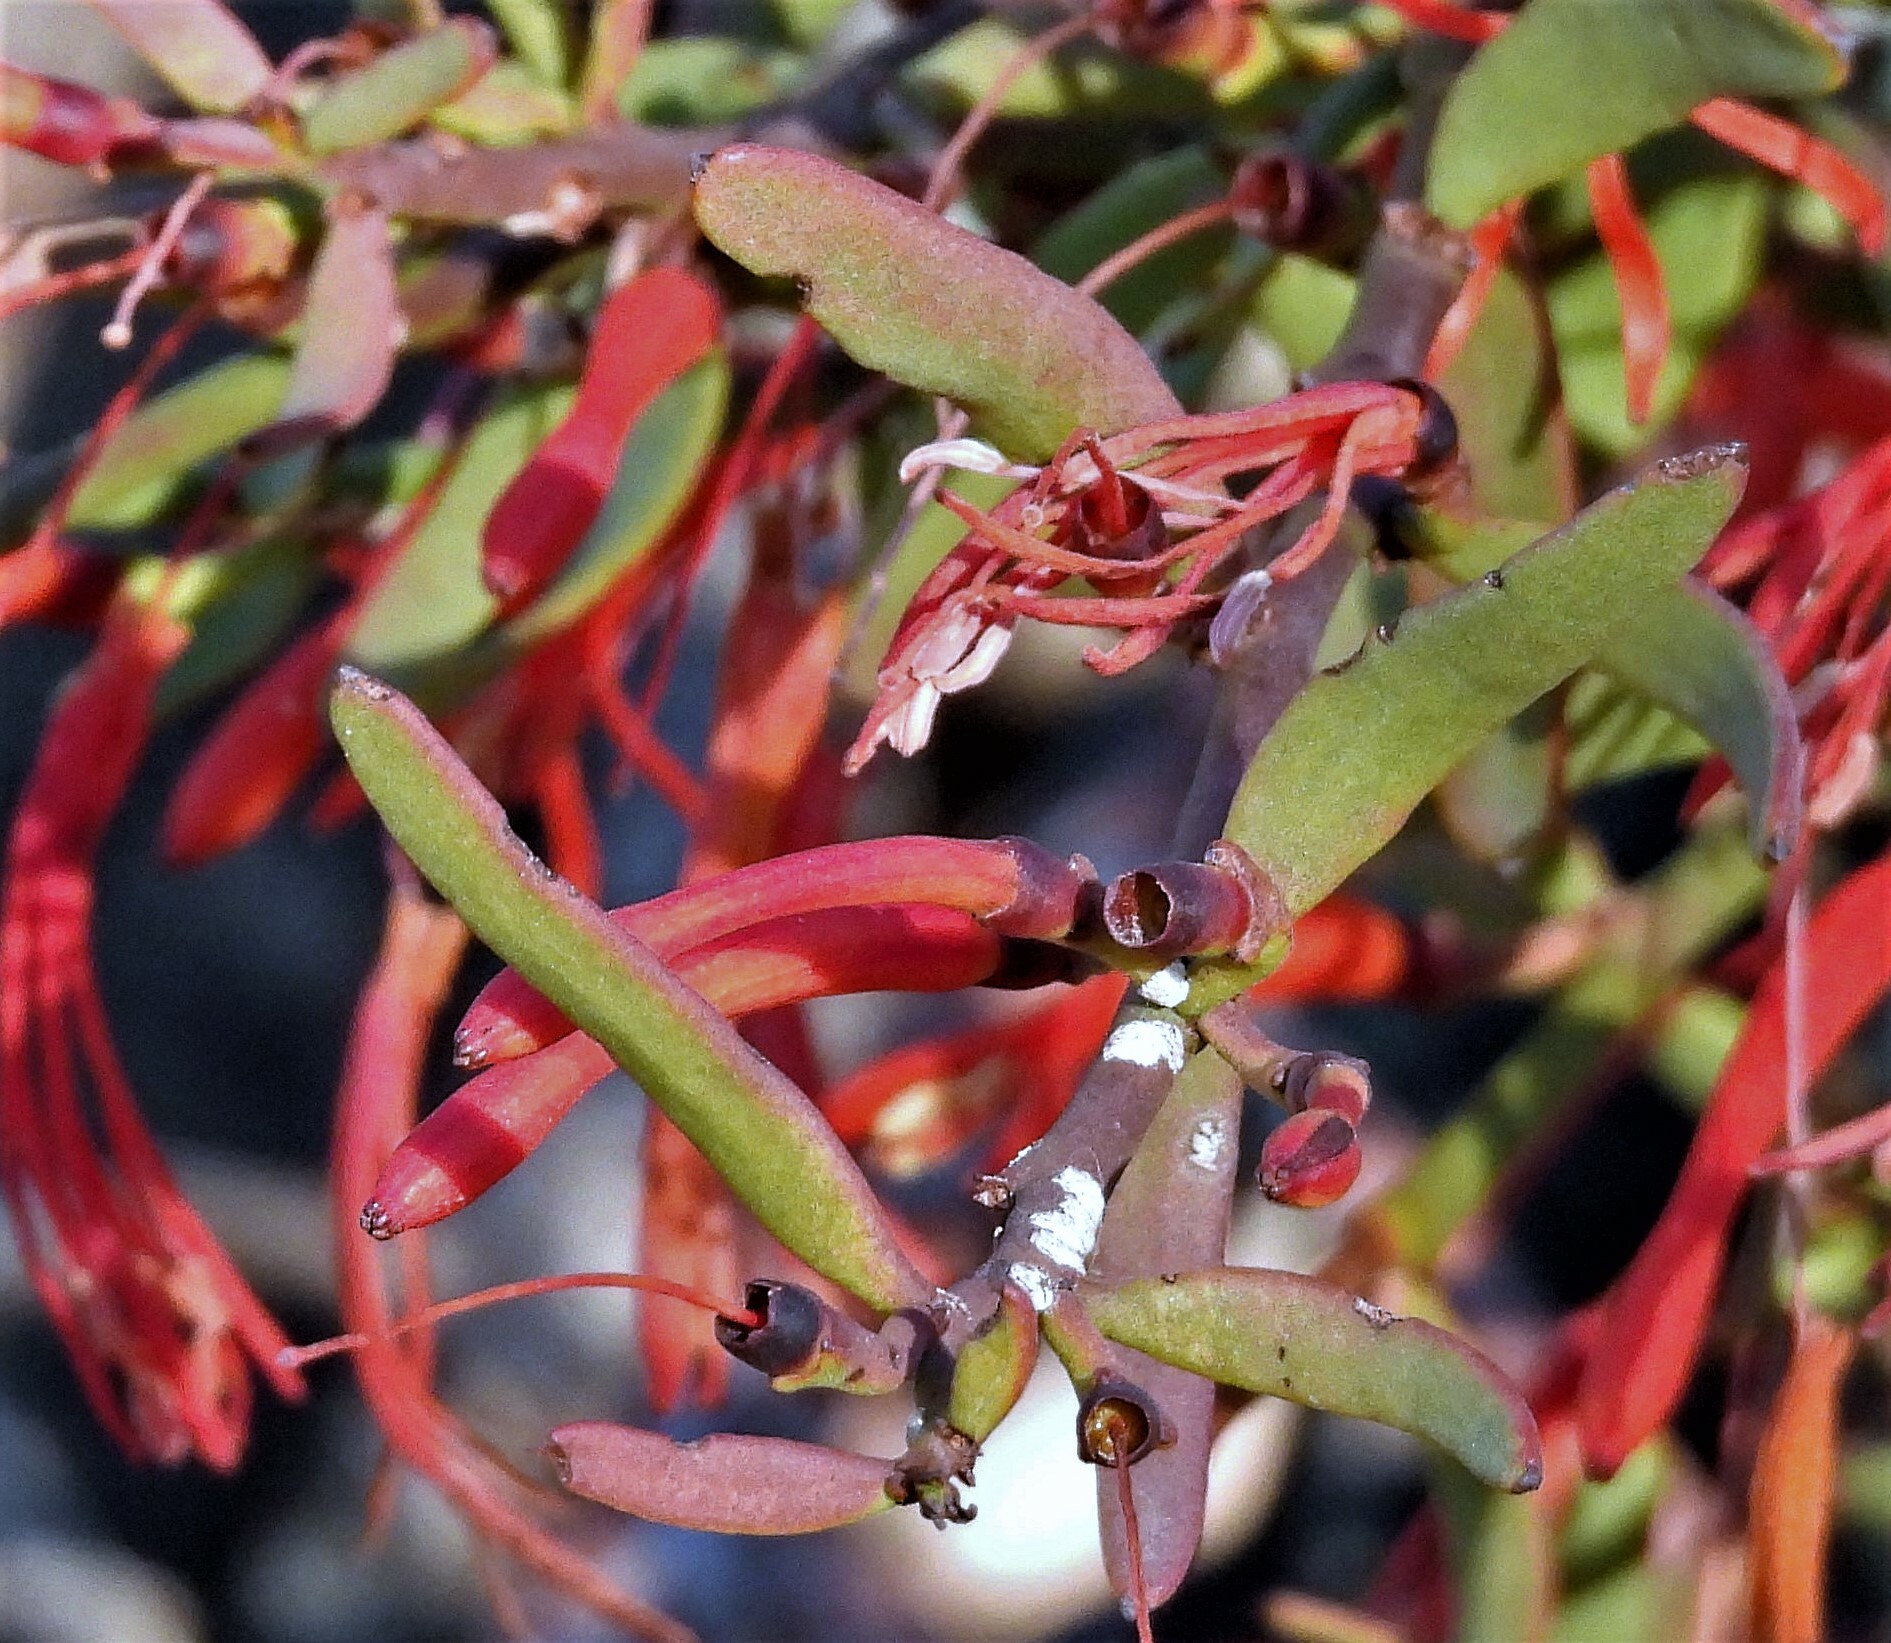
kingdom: Plantae
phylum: Tracheophyta
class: Magnoliopsida
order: Santalales
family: Loranthaceae
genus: Ligaria
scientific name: Ligaria cuneifolia
